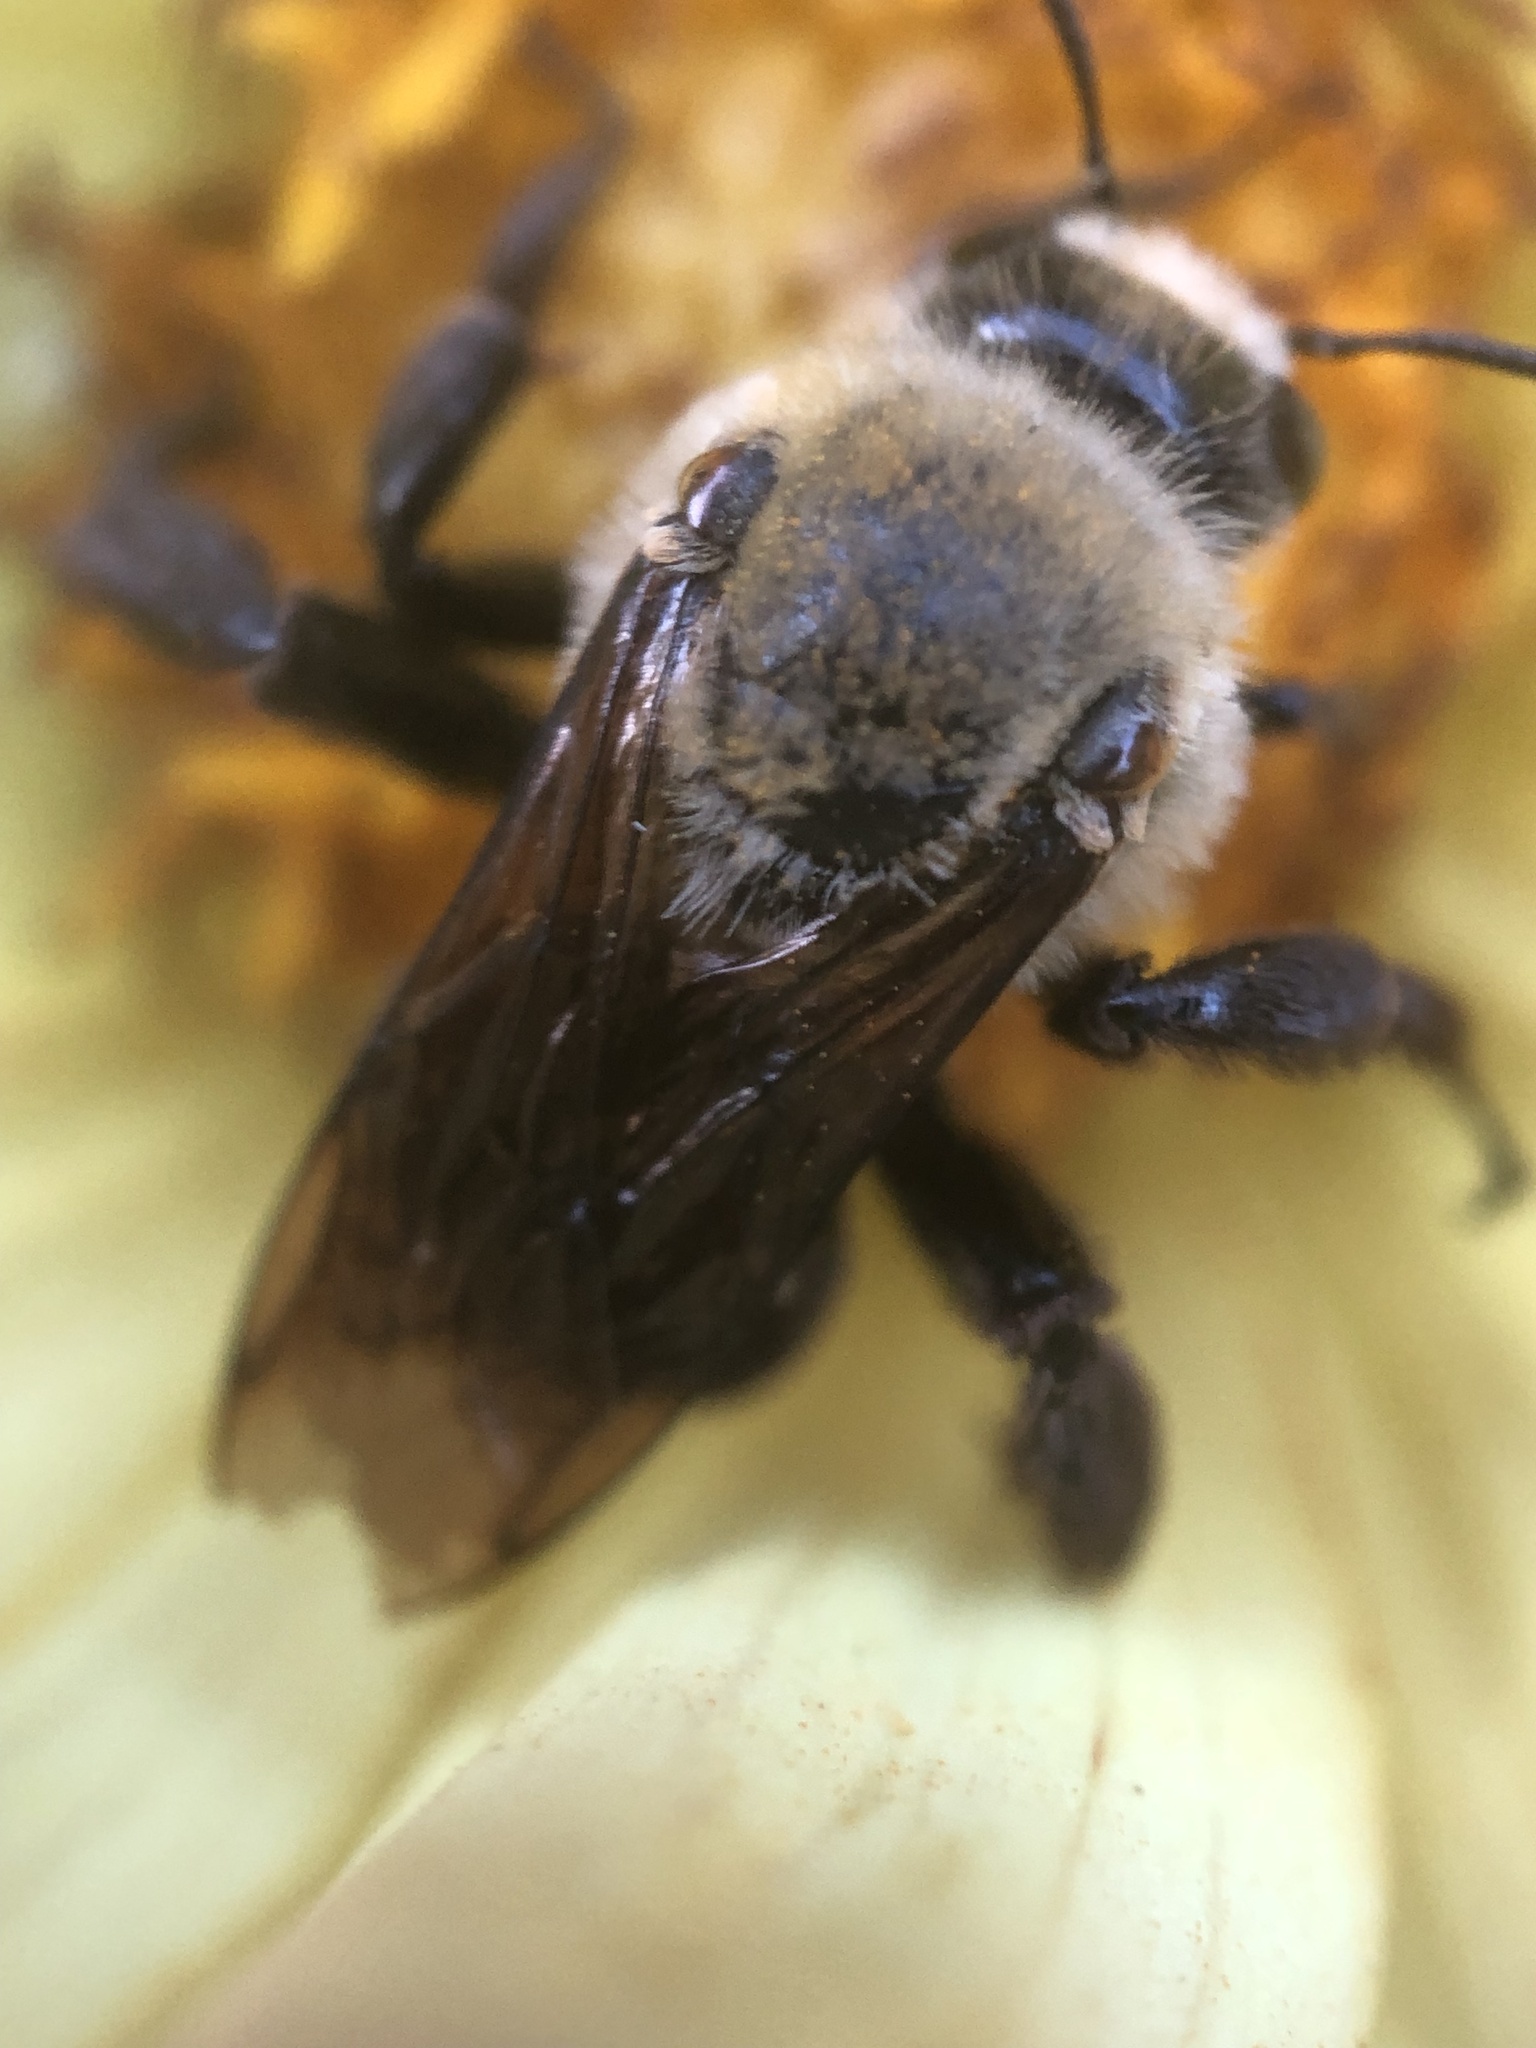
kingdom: Animalia
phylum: Arthropoda
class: Insecta
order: Hymenoptera
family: Apidae
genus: Ptilothrix
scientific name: Ptilothrix bombiformis
